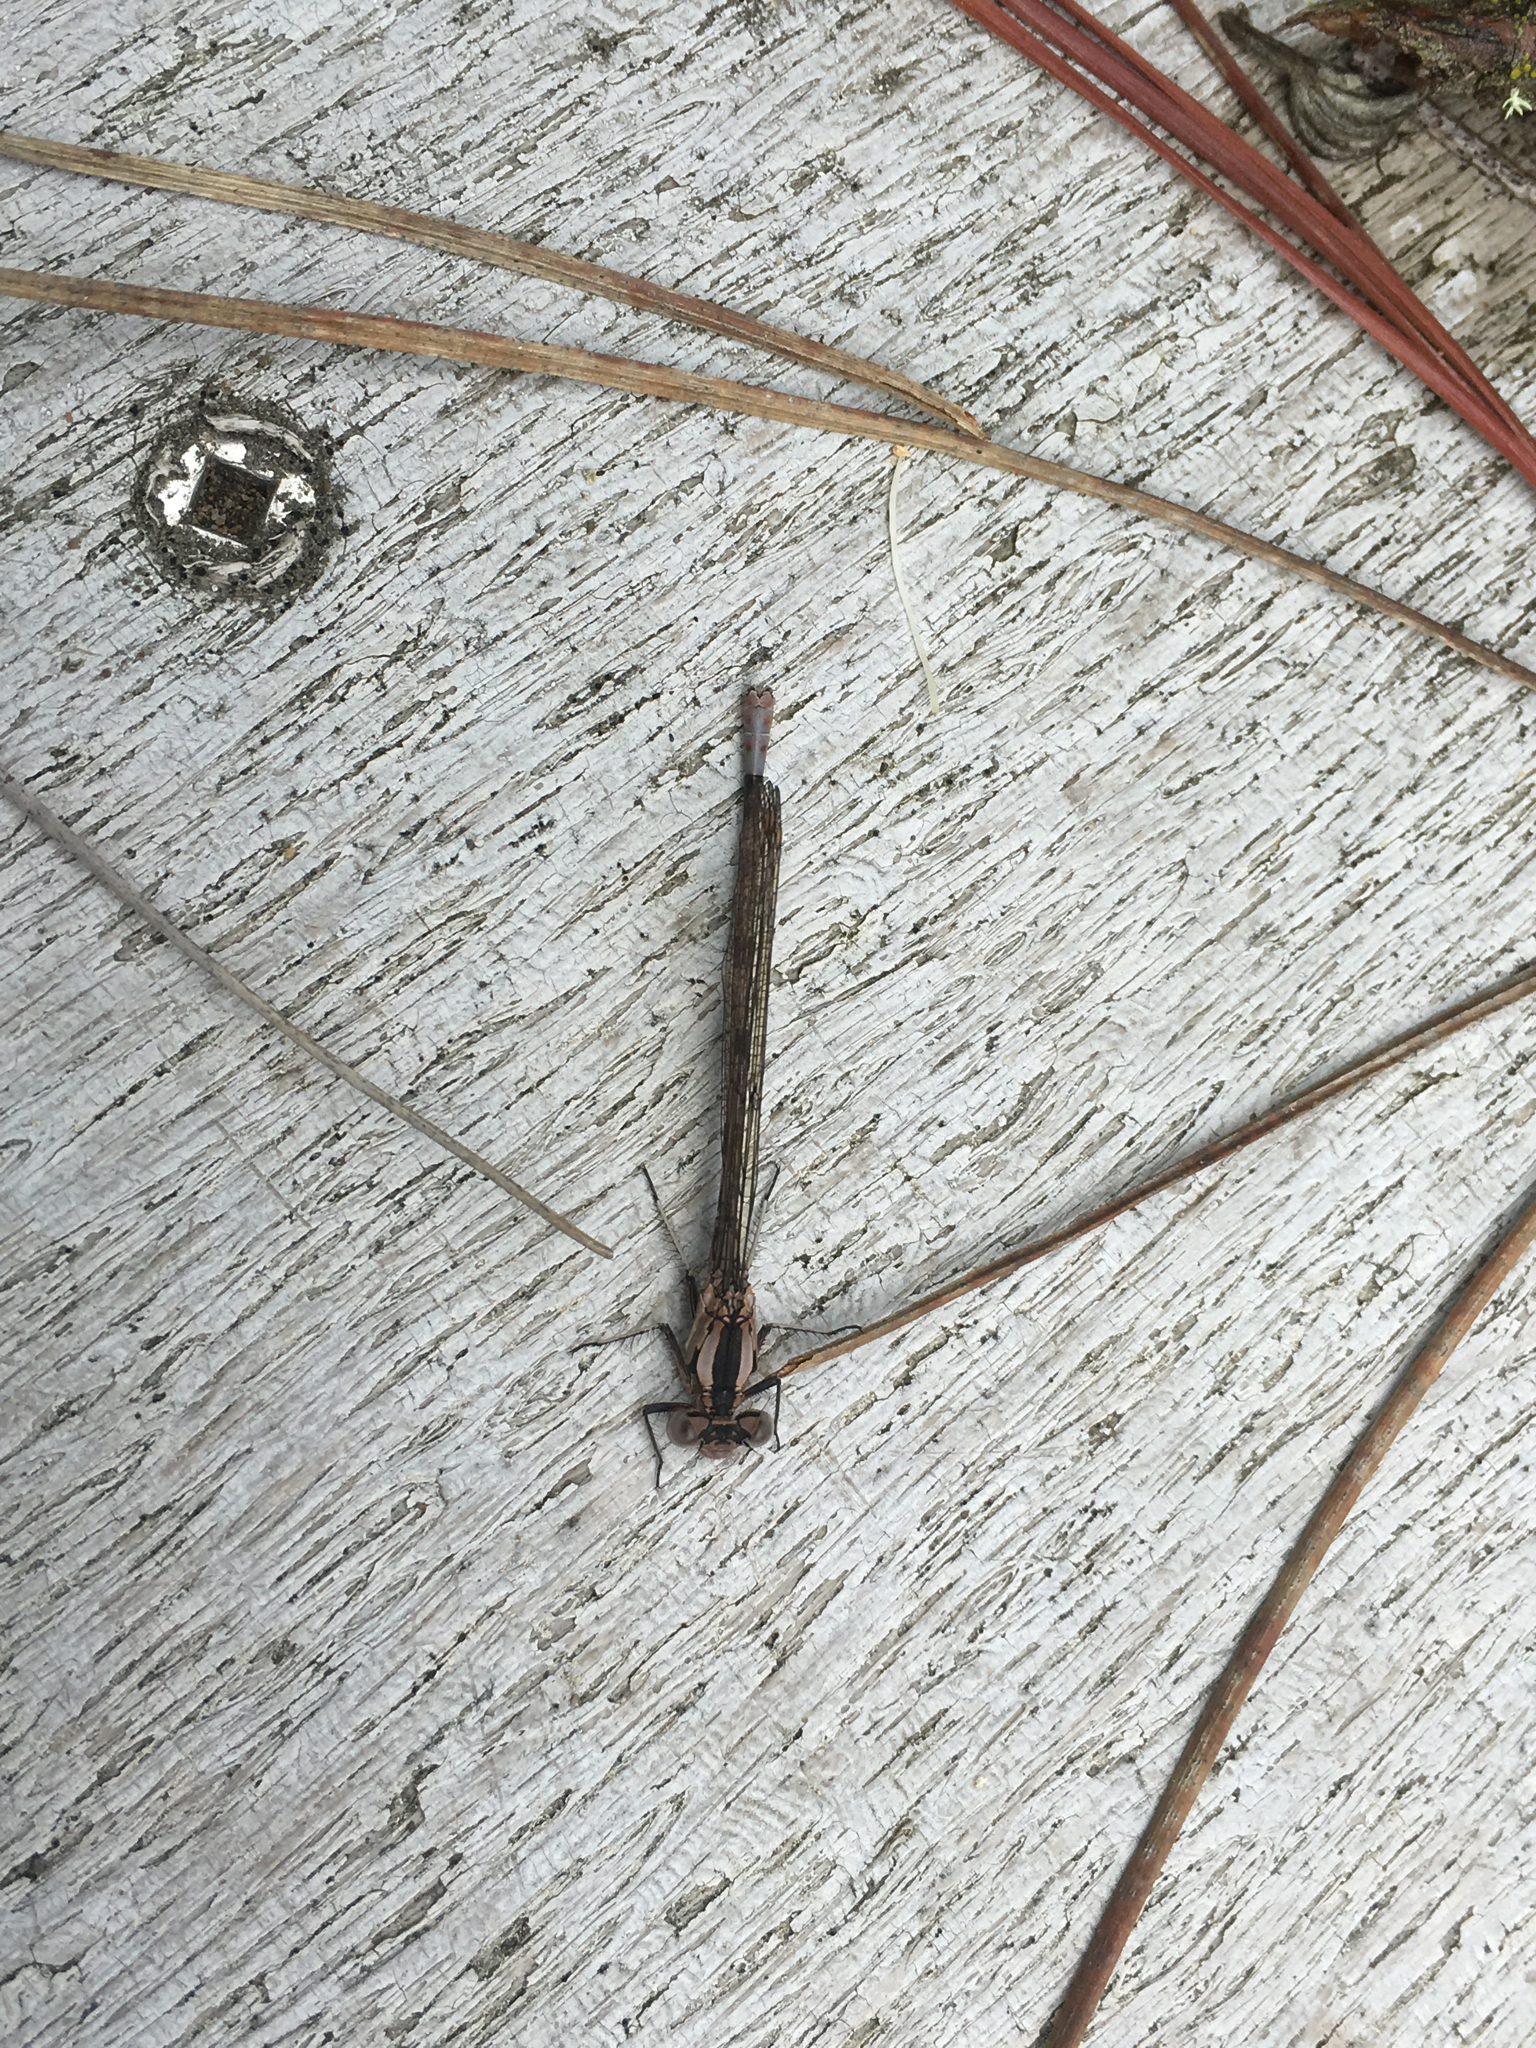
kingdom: Animalia
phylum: Arthropoda
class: Insecta
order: Odonata
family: Coenagrionidae
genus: Argia
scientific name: Argia vivida
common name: Vivid dancer
